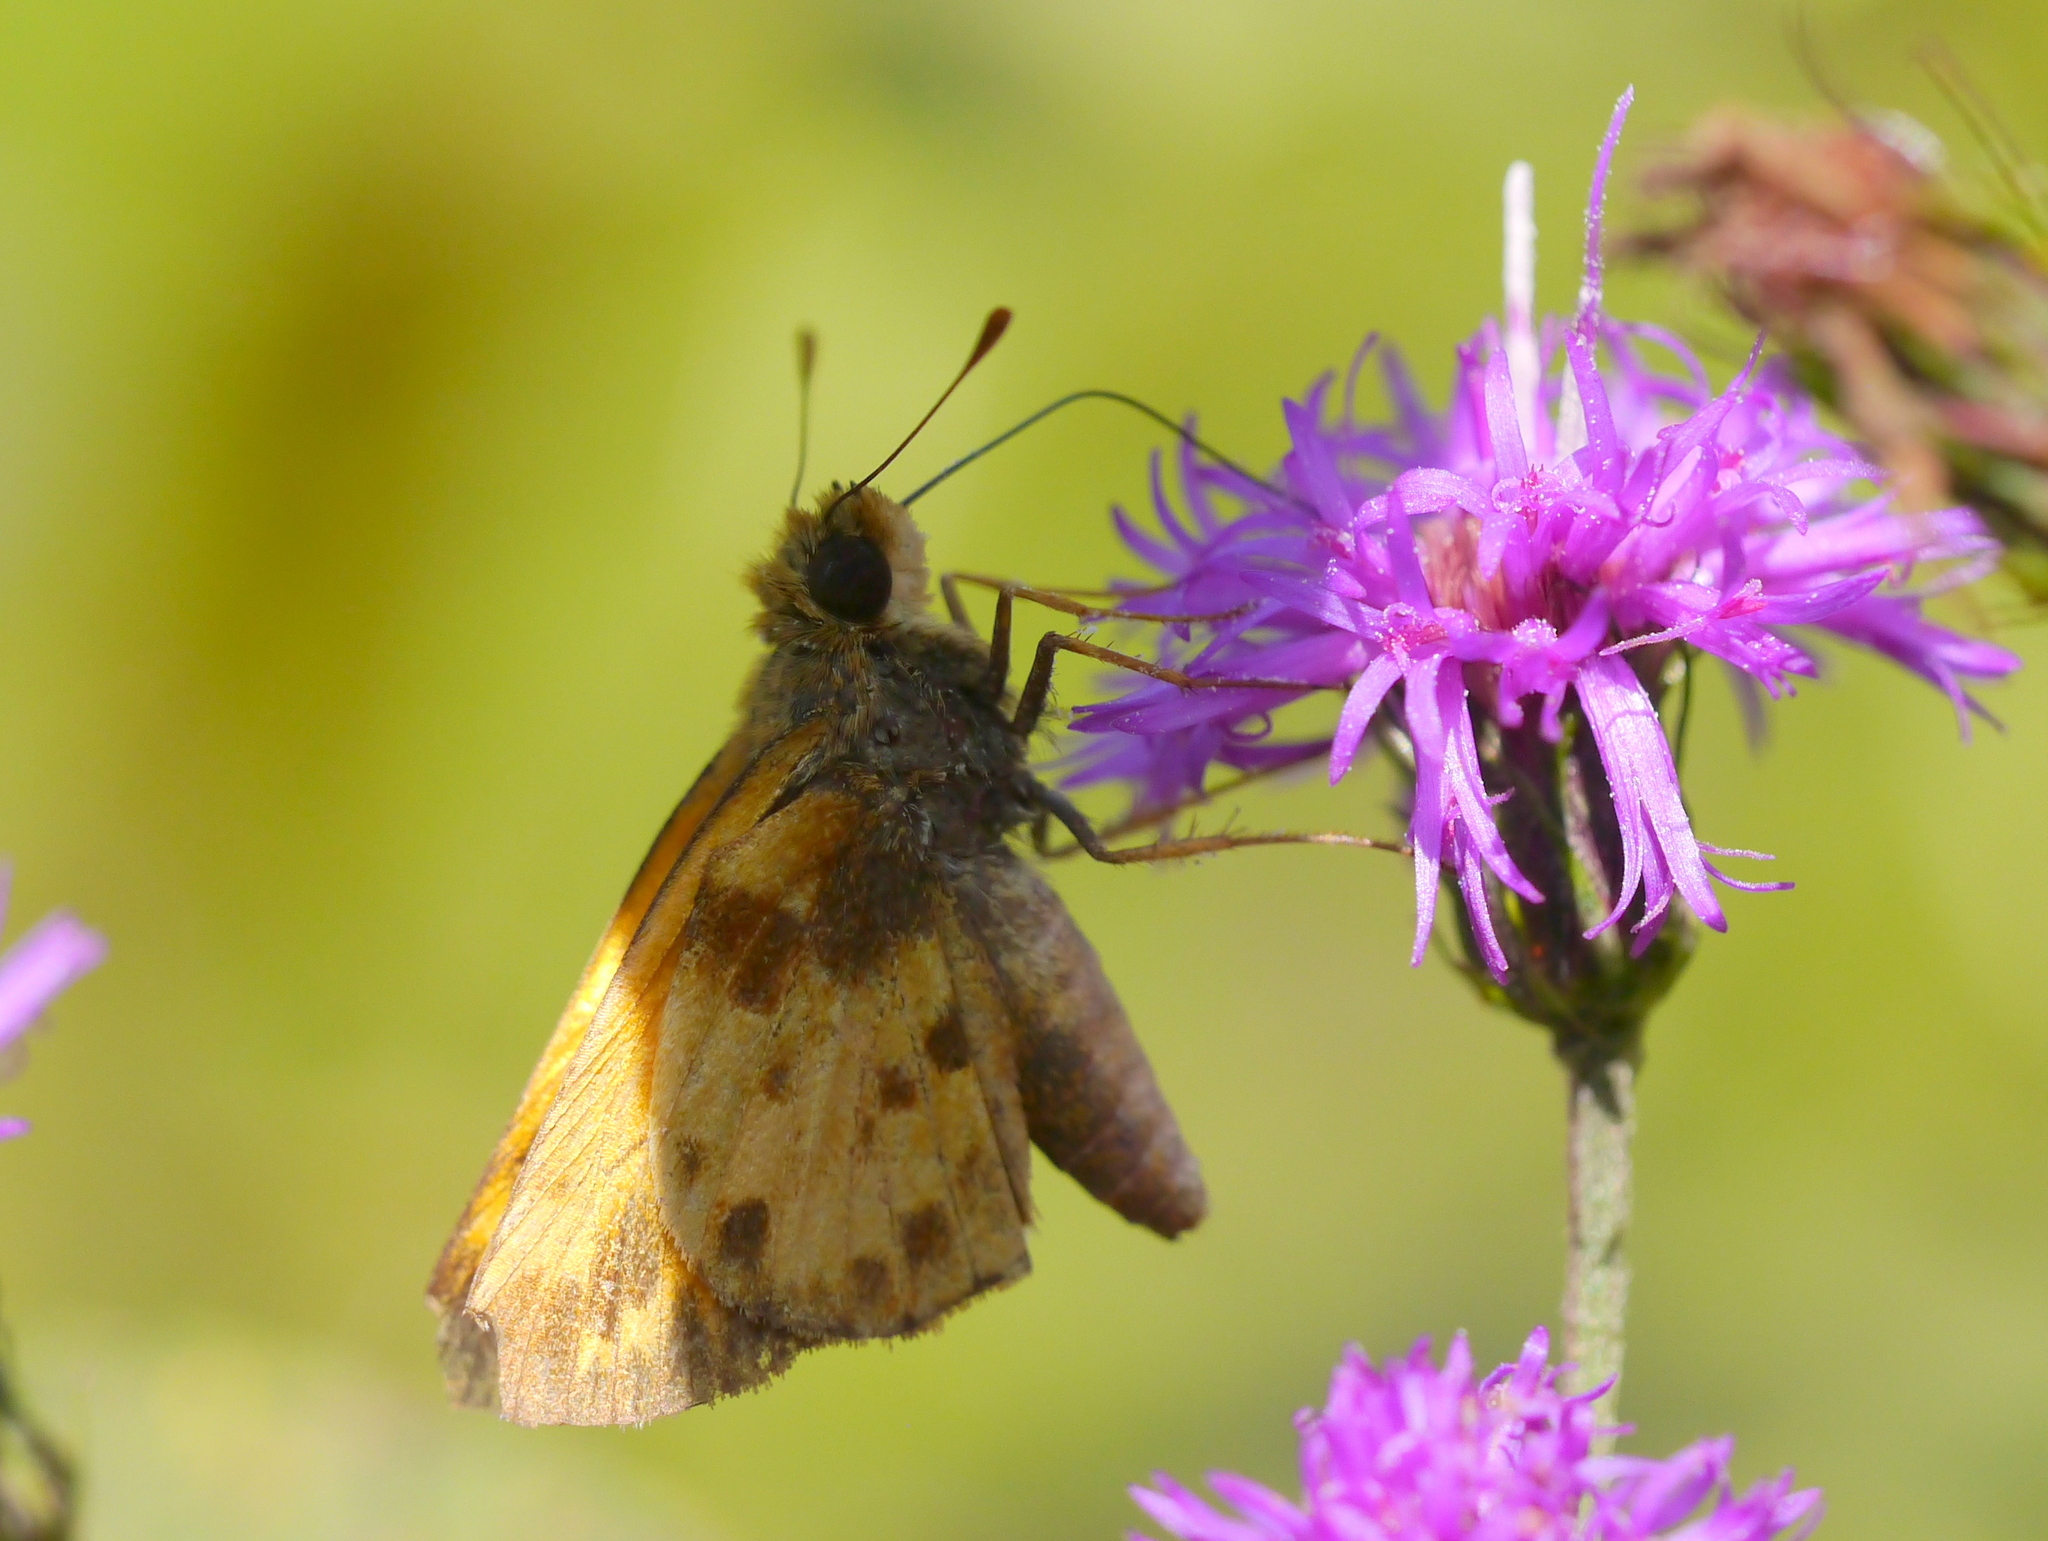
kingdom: Animalia
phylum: Arthropoda
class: Insecta
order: Lepidoptera
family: Hesperiidae
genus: Lon
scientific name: Lon zabulon
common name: Zabulon skipper
